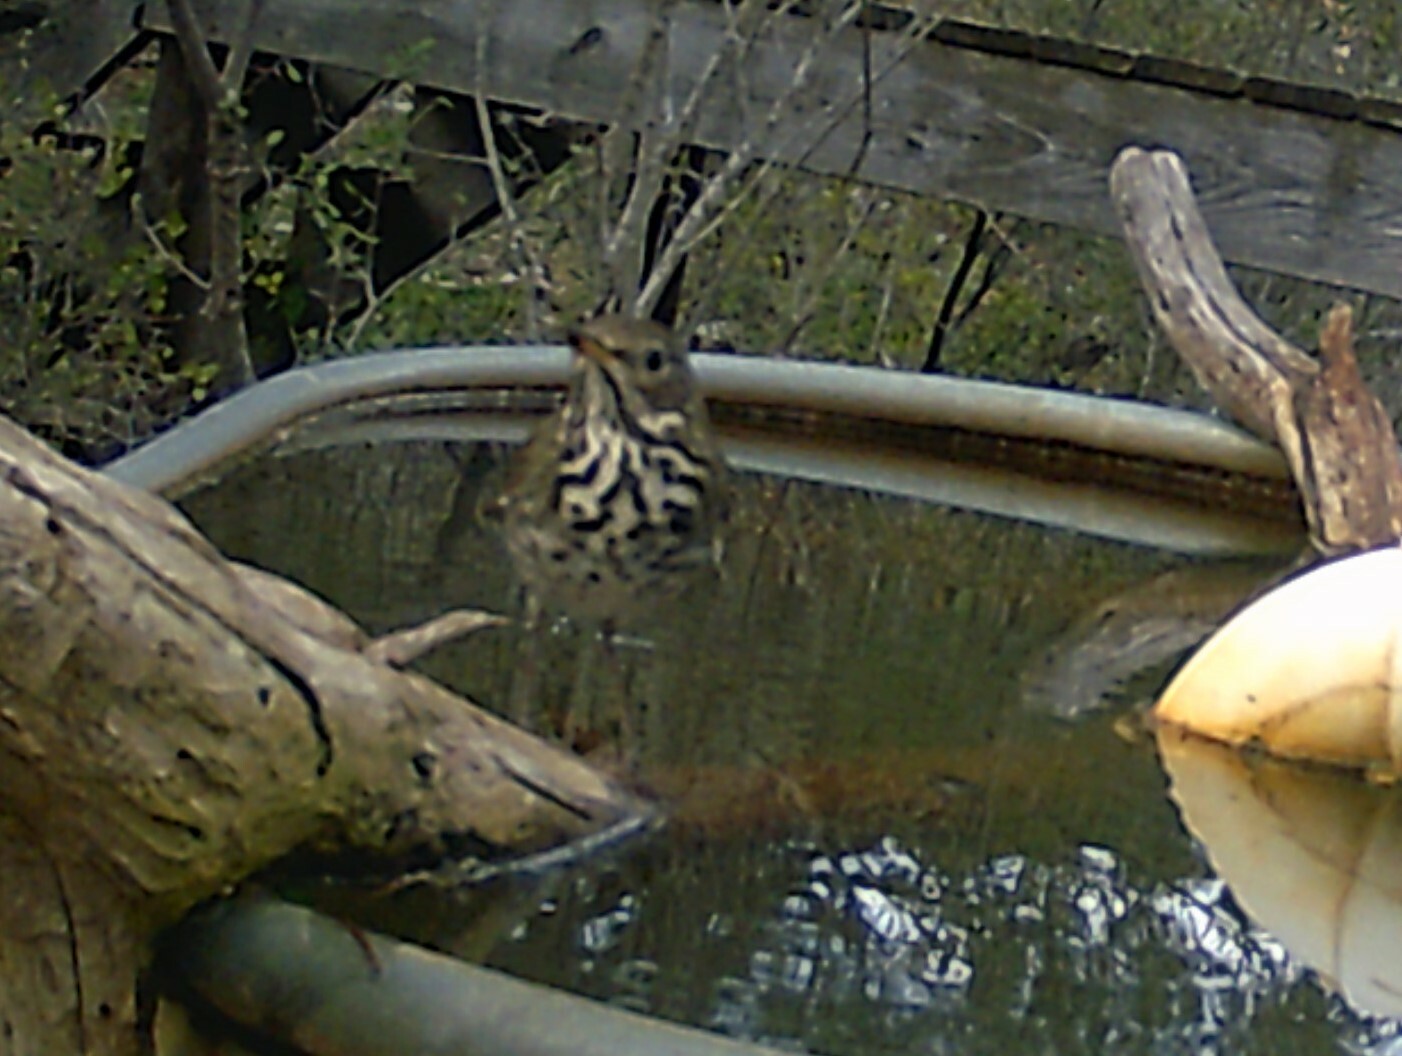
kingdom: Animalia
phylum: Chordata
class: Aves
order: Passeriformes
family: Turdidae
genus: Catharus
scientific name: Catharus guttatus
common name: Hermit thrush
